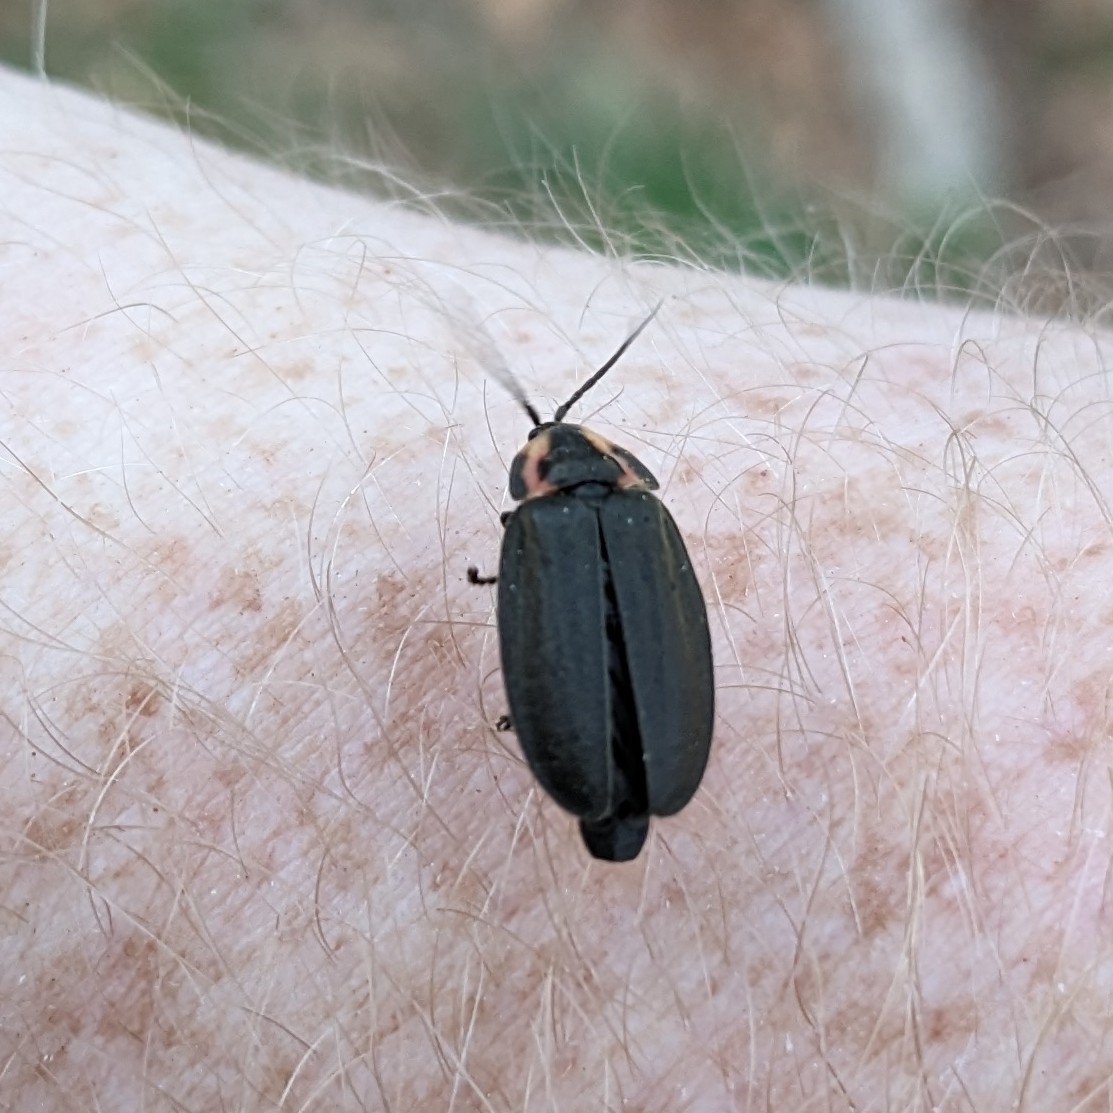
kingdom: Animalia
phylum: Arthropoda
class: Insecta
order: Coleoptera
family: Lampyridae
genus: Photinus
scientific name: Photinus corrusca
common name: Winter firefly
